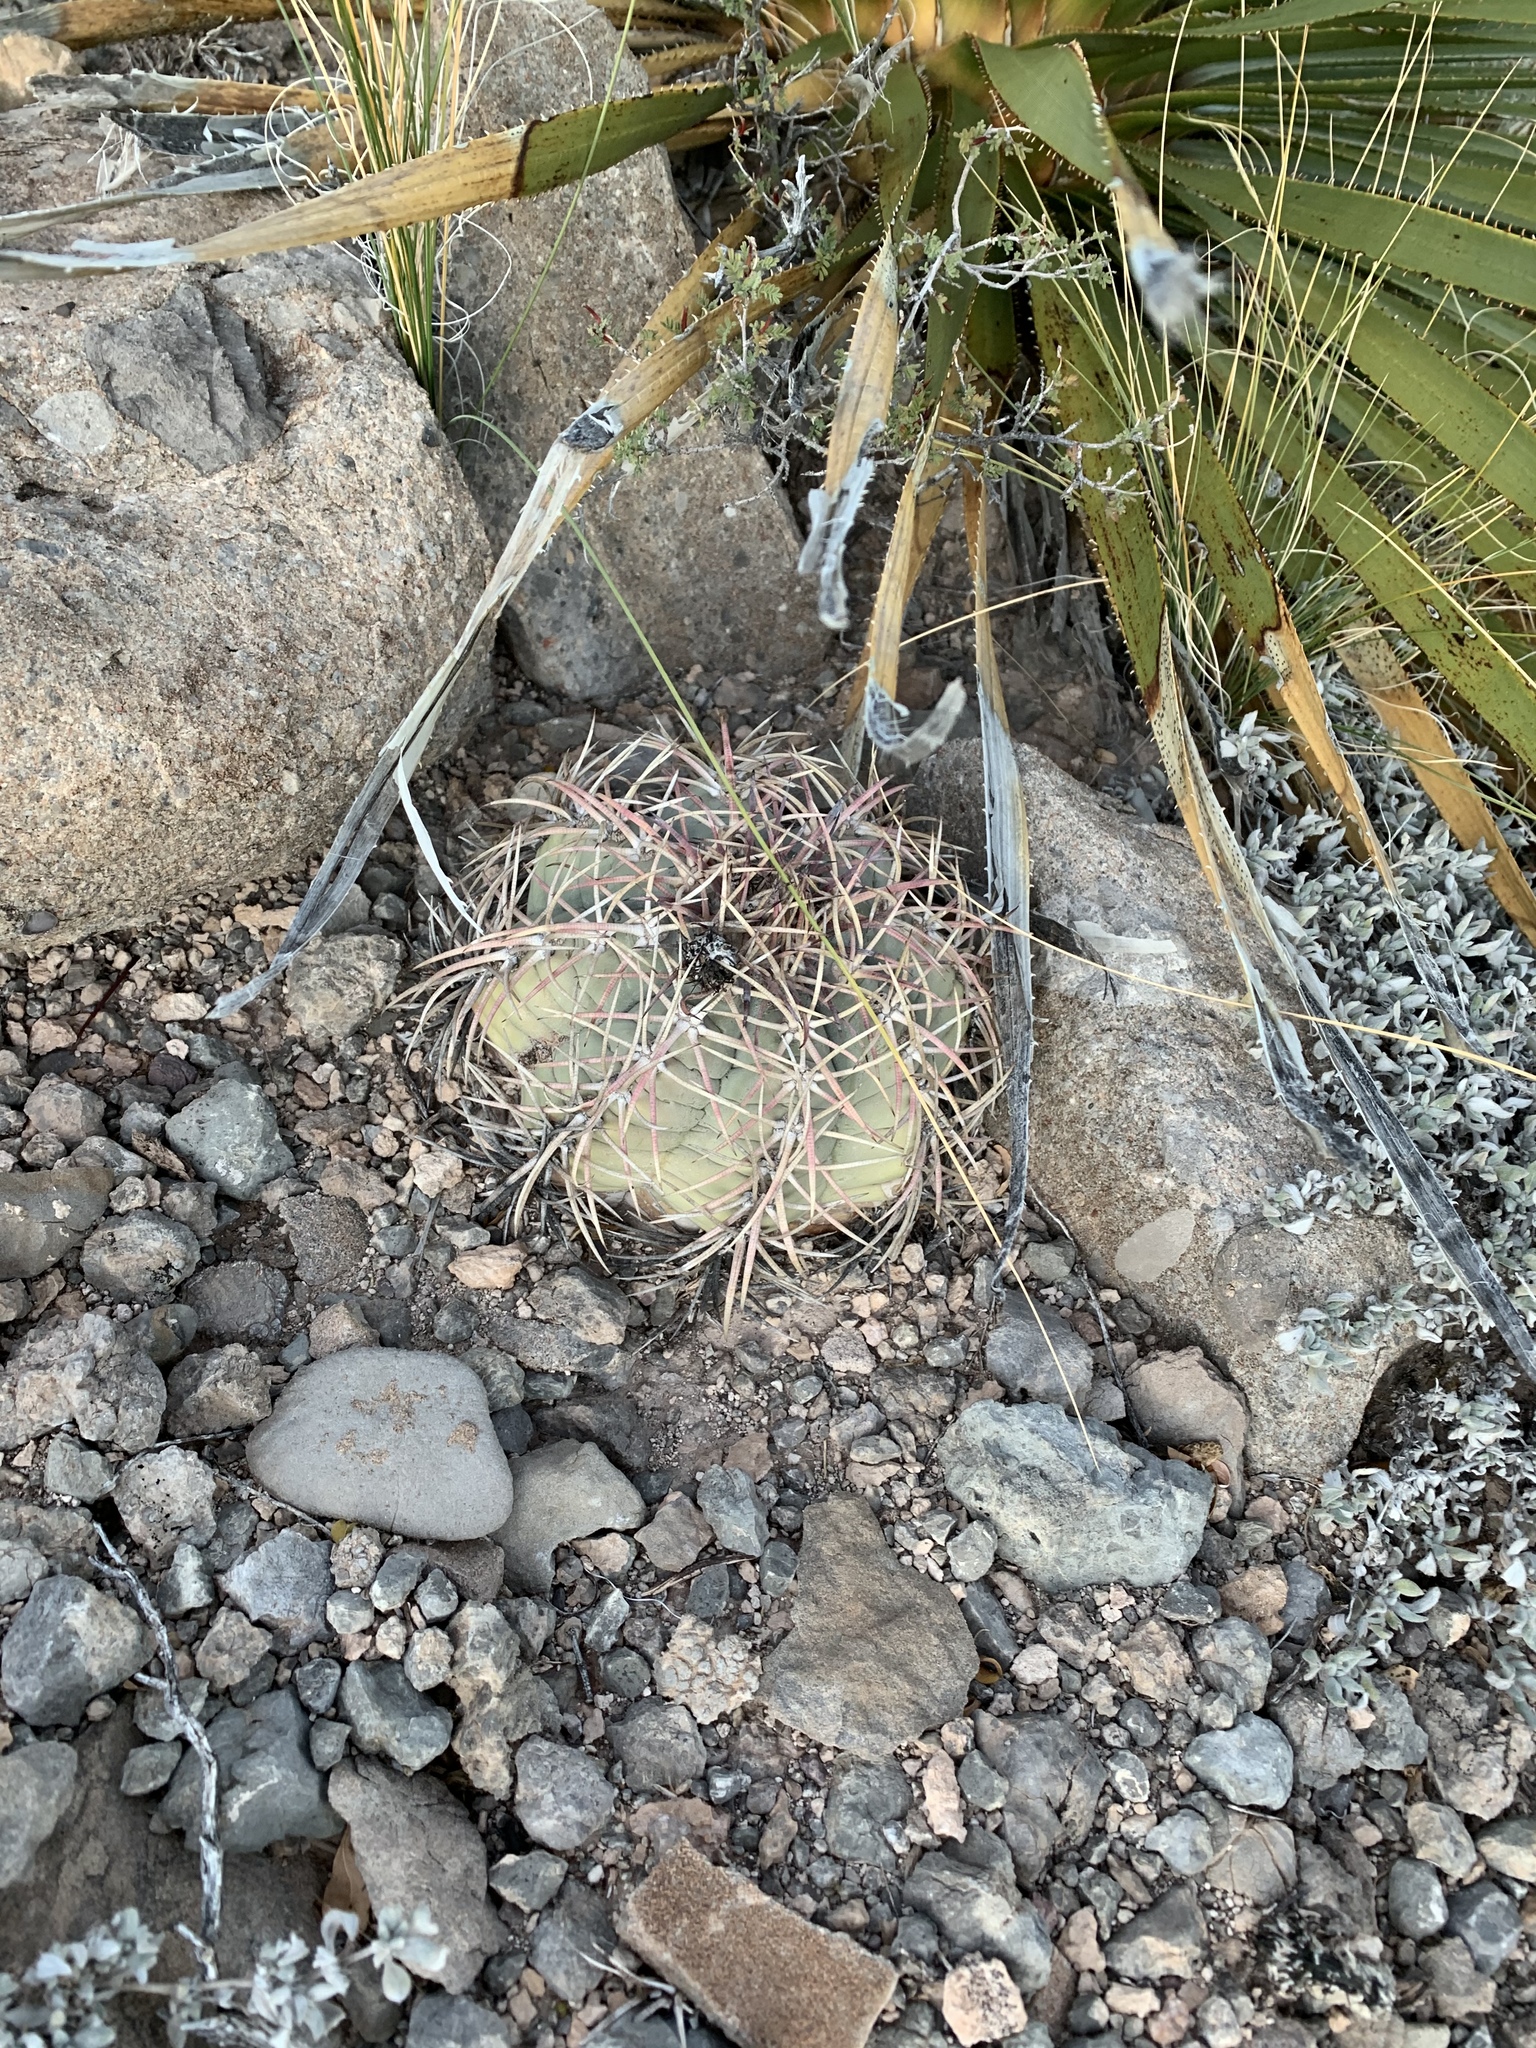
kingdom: Plantae
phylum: Tracheophyta
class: Magnoliopsida
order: Caryophyllales
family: Cactaceae
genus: Echinocactus
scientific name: Echinocactus horizonthalonius
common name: Devilshead
